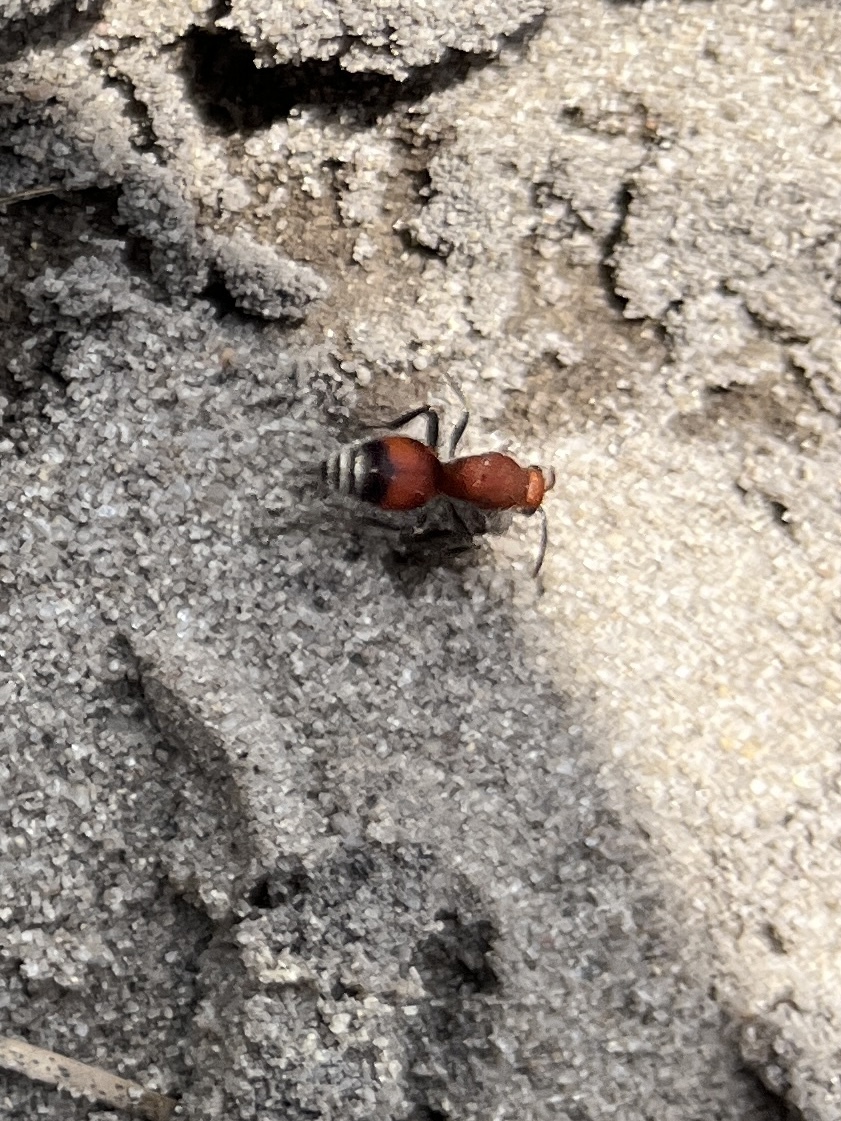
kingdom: Animalia
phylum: Arthropoda
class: Insecta
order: Hymenoptera
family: Mutillidae
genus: Dasymutilla
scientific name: Dasymutilla
